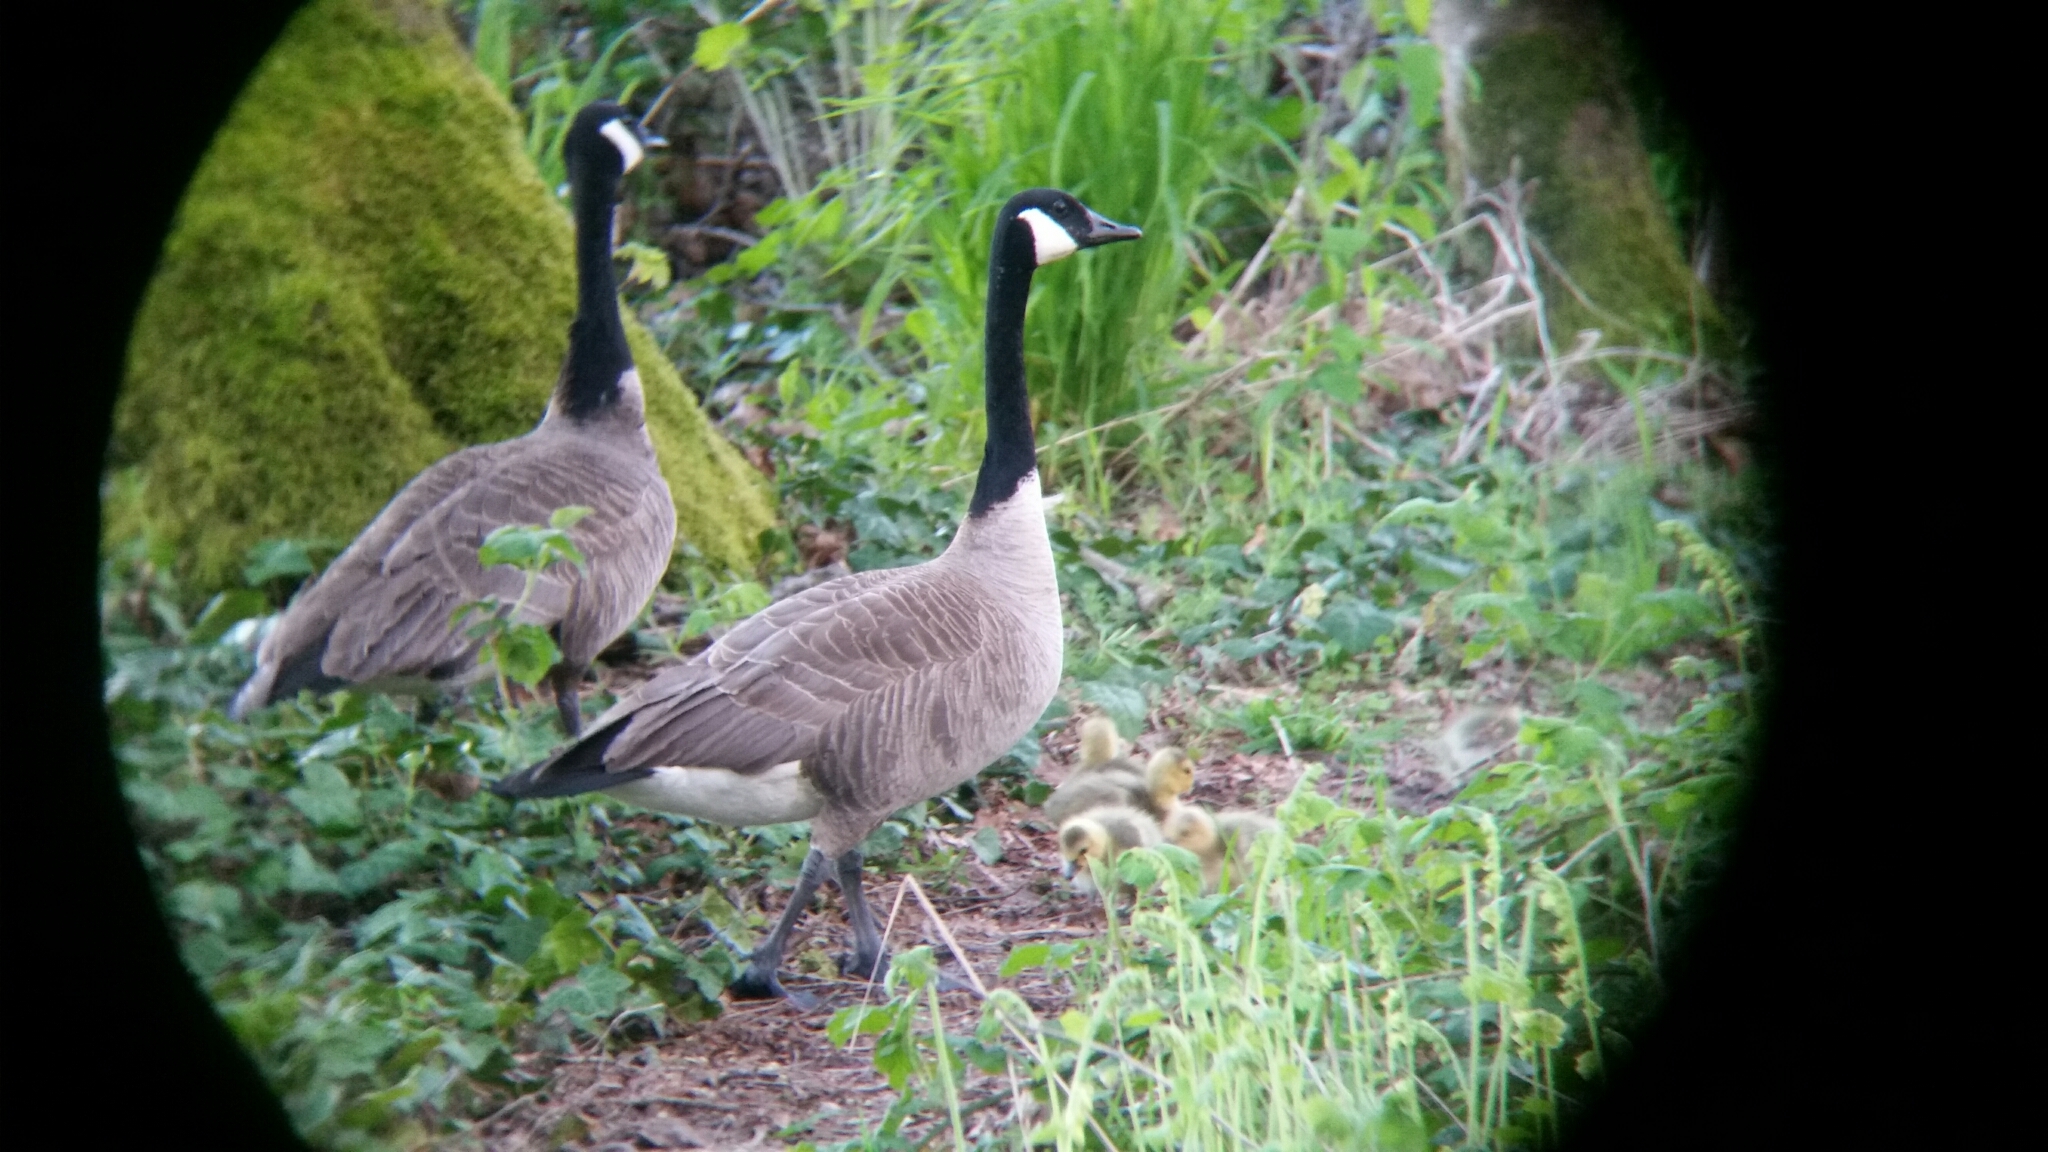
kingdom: Animalia
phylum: Chordata
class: Aves
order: Anseriformes
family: Anatidae
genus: Branta
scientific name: Branta canadensis
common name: Canada goose
